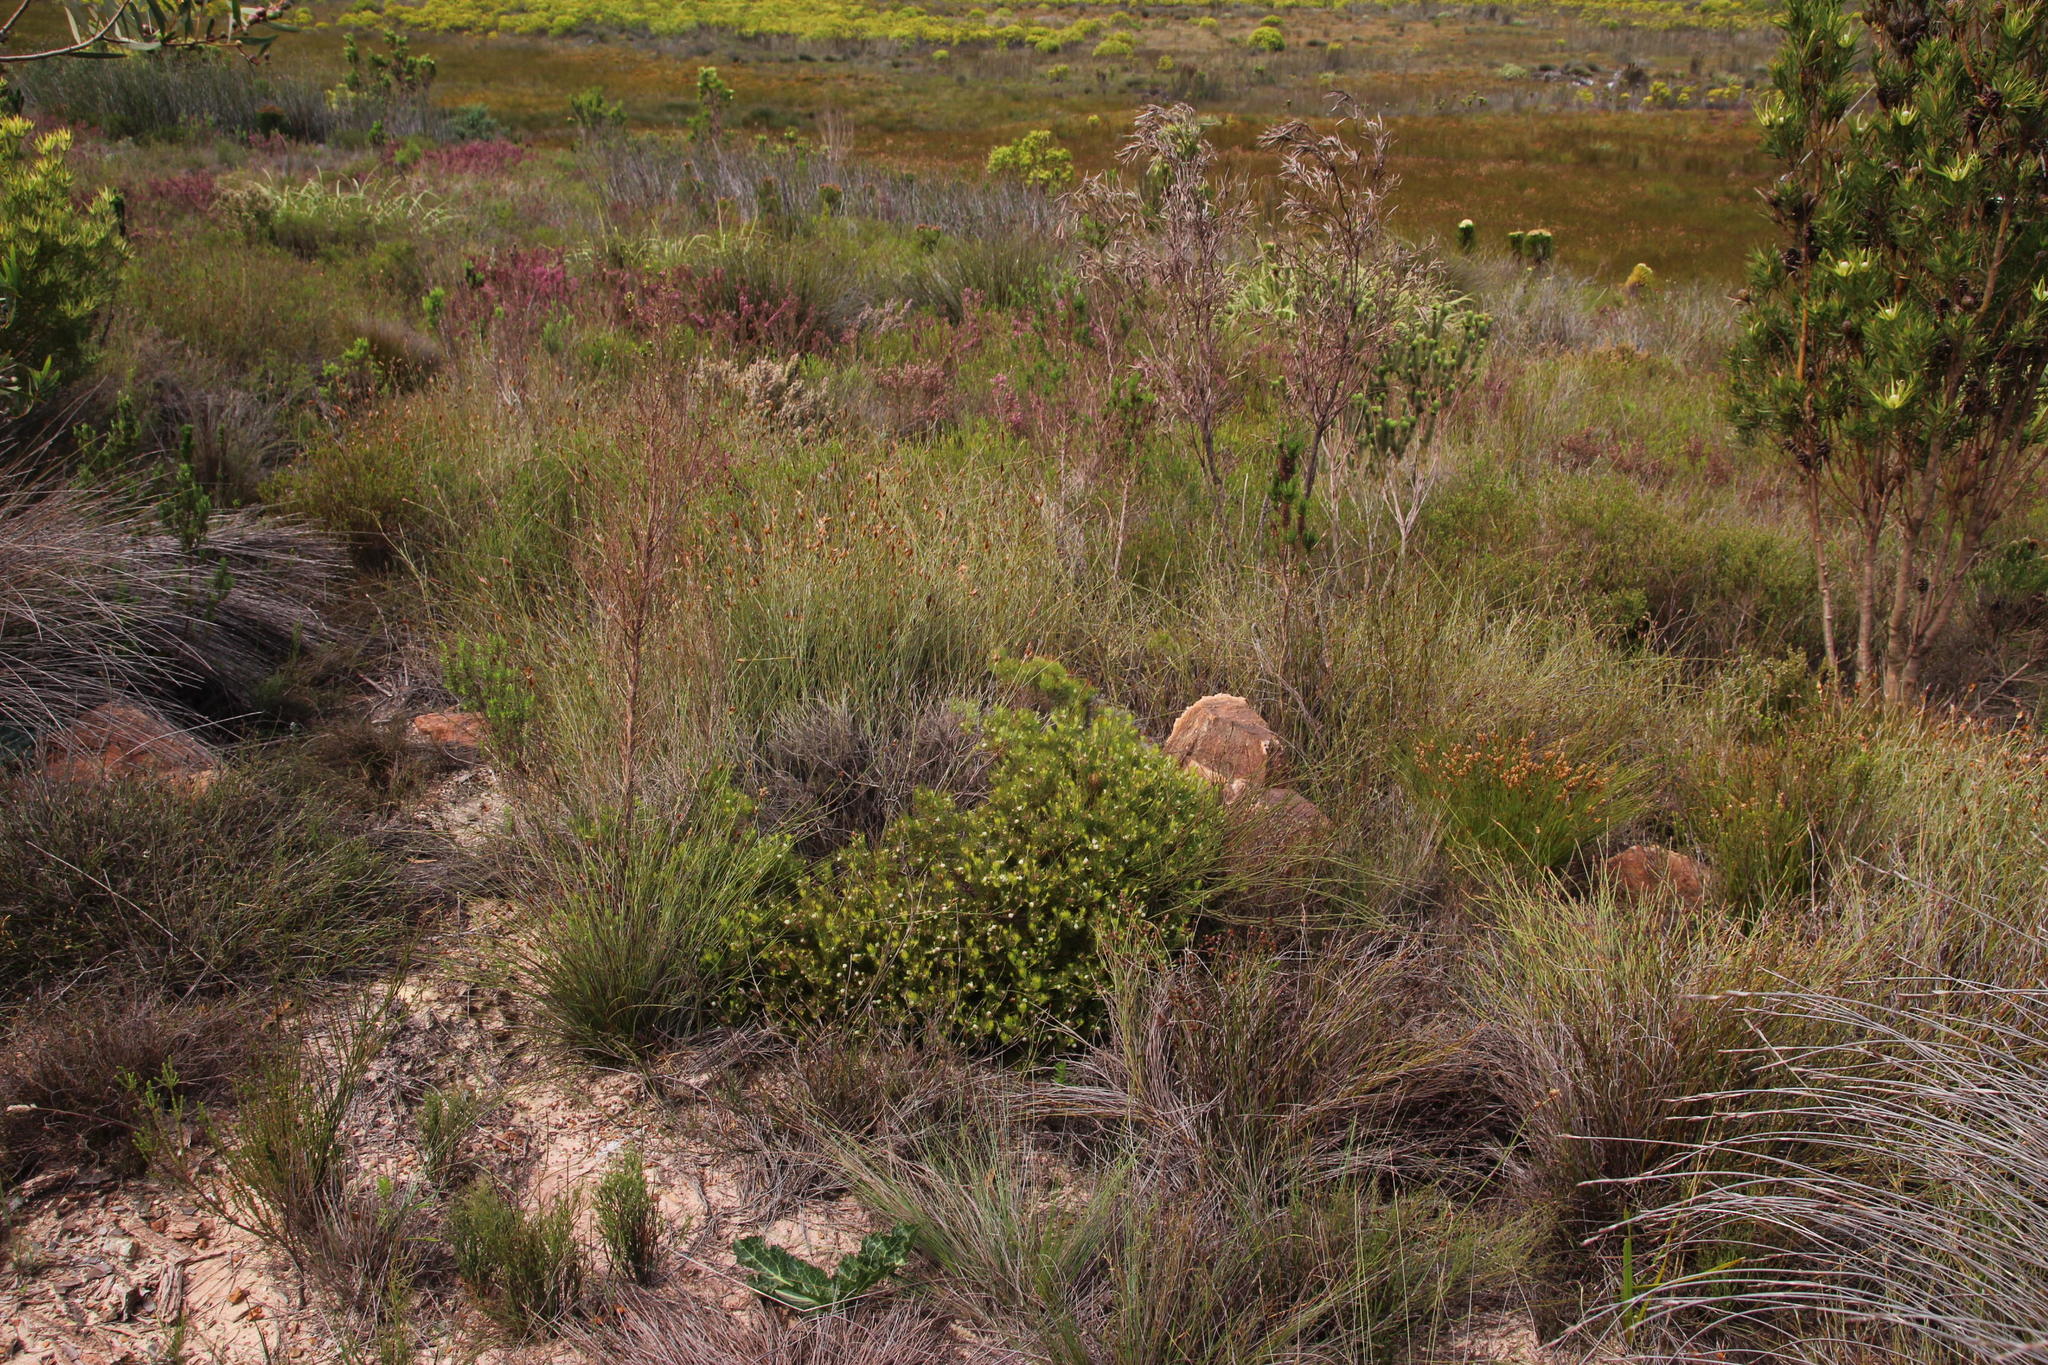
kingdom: Plantae
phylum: Tracheophyta
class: Magnoliopsida
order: Proteales
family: Proteaceae
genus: Serruria
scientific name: Serruria inconspicua
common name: Cryptic spiderhead
